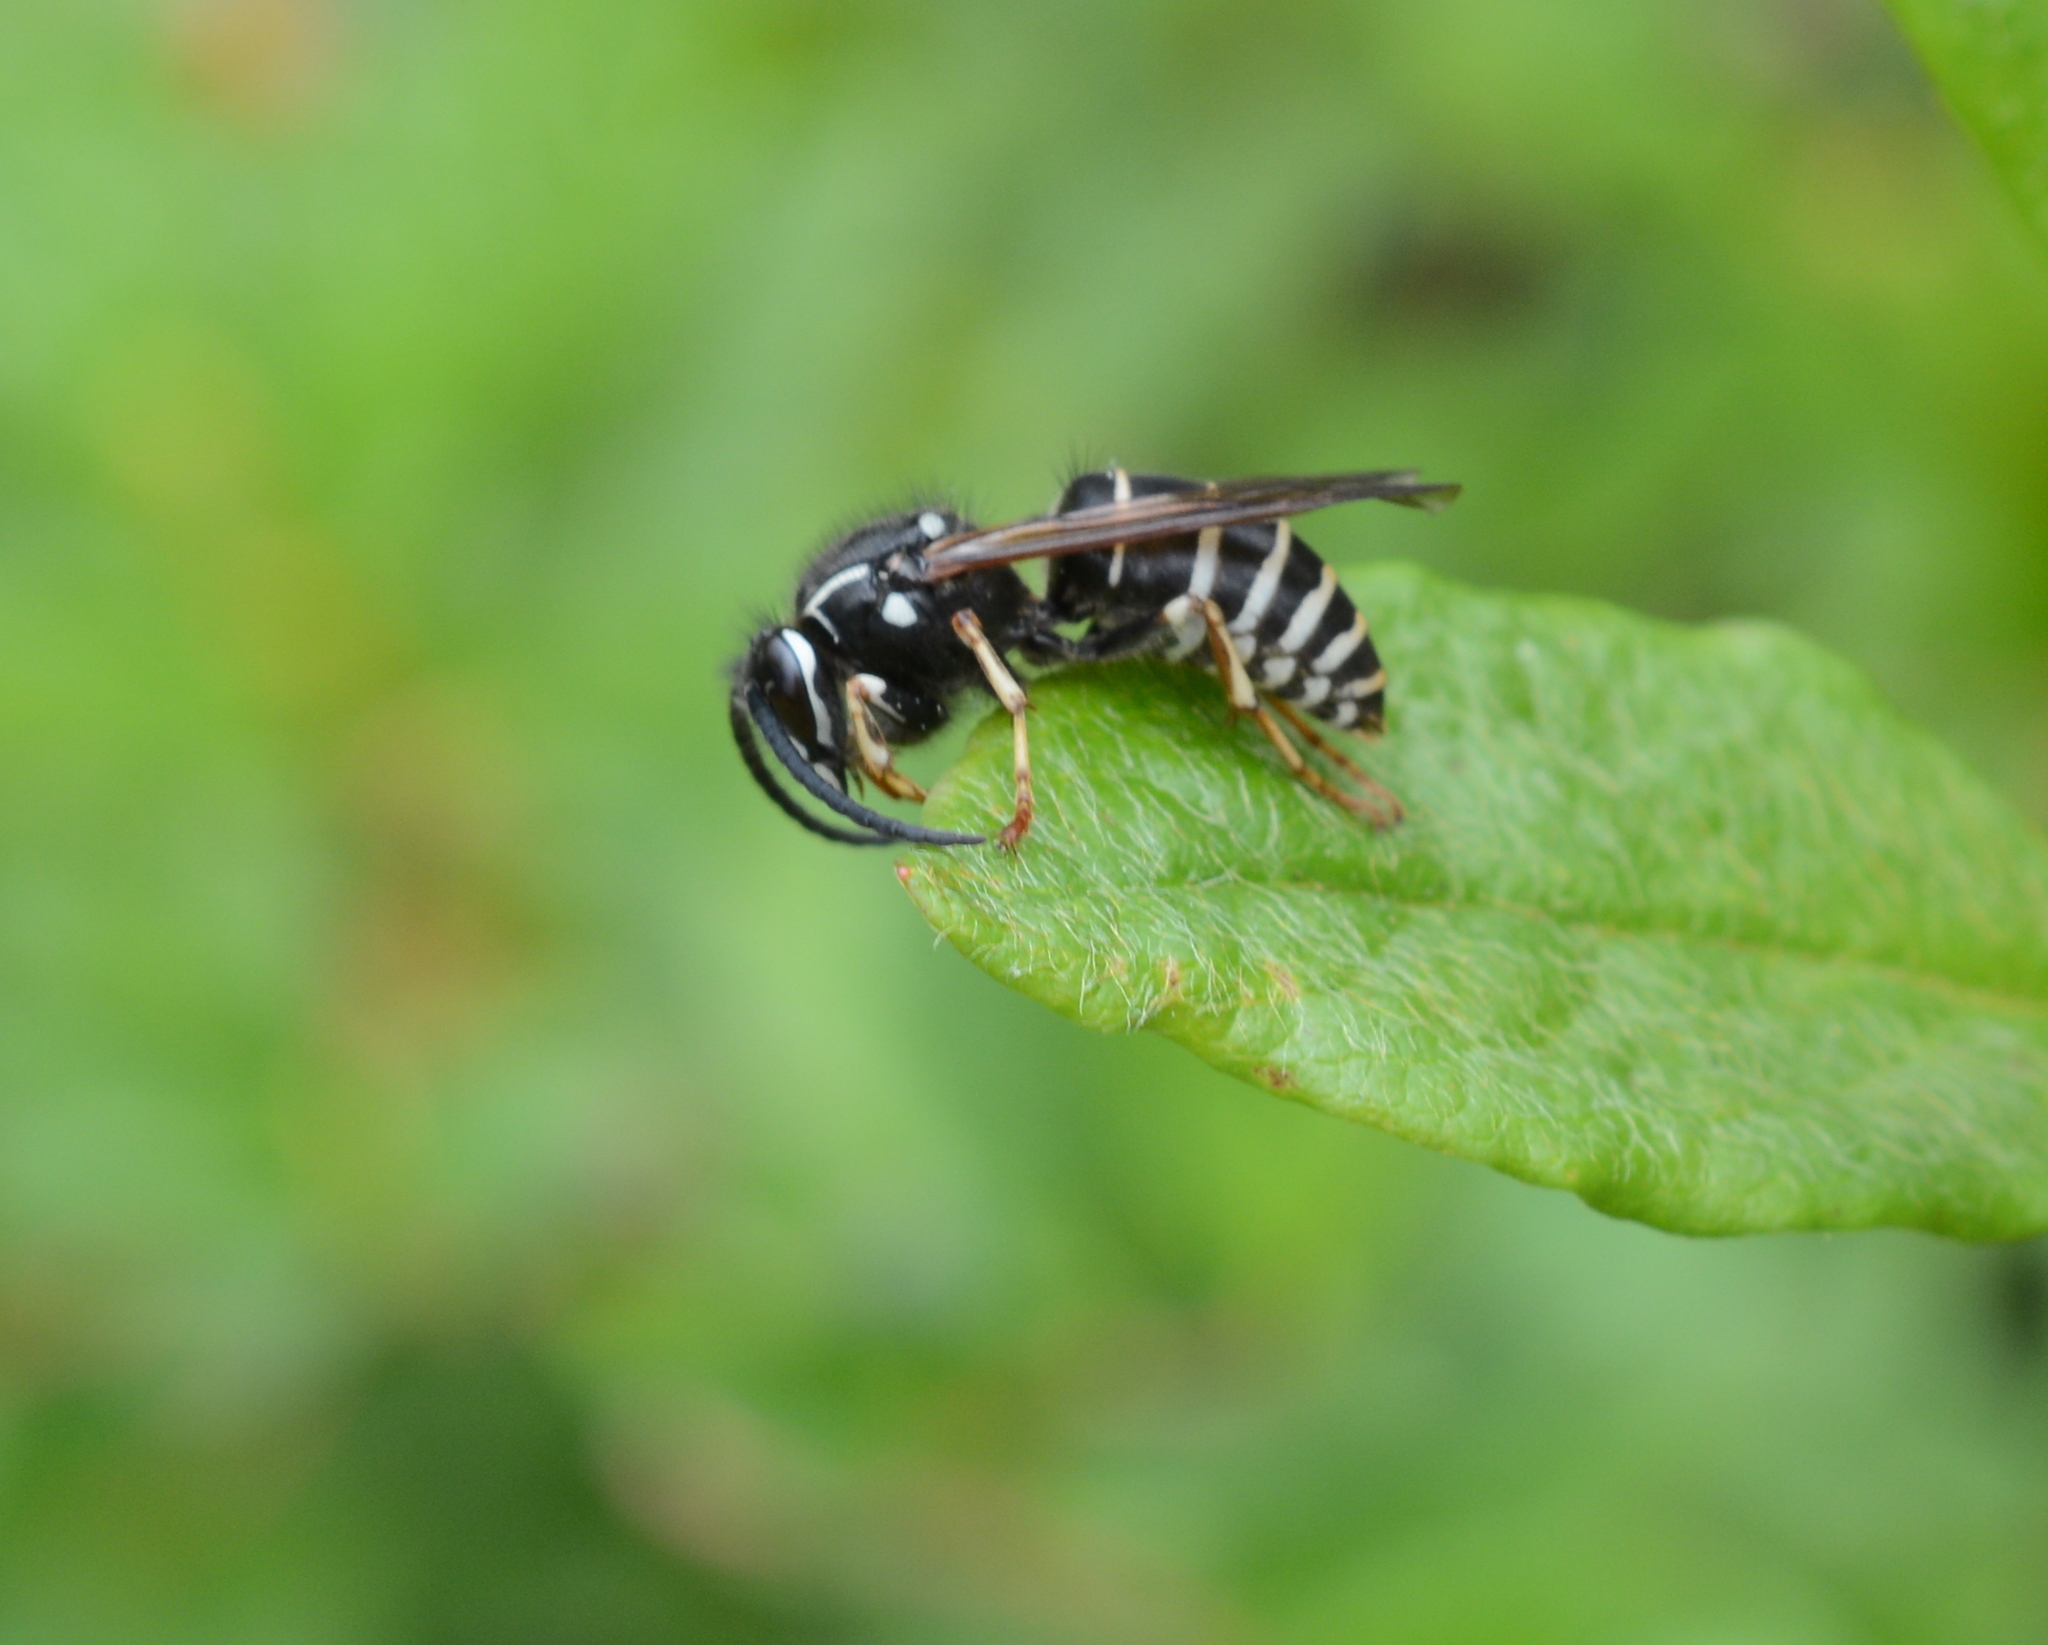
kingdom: Animalia
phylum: Arthropoda
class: Insecta
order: Hymenoptera
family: Vespidae
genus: Dolichovespula
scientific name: Dolichovespula adulterina
